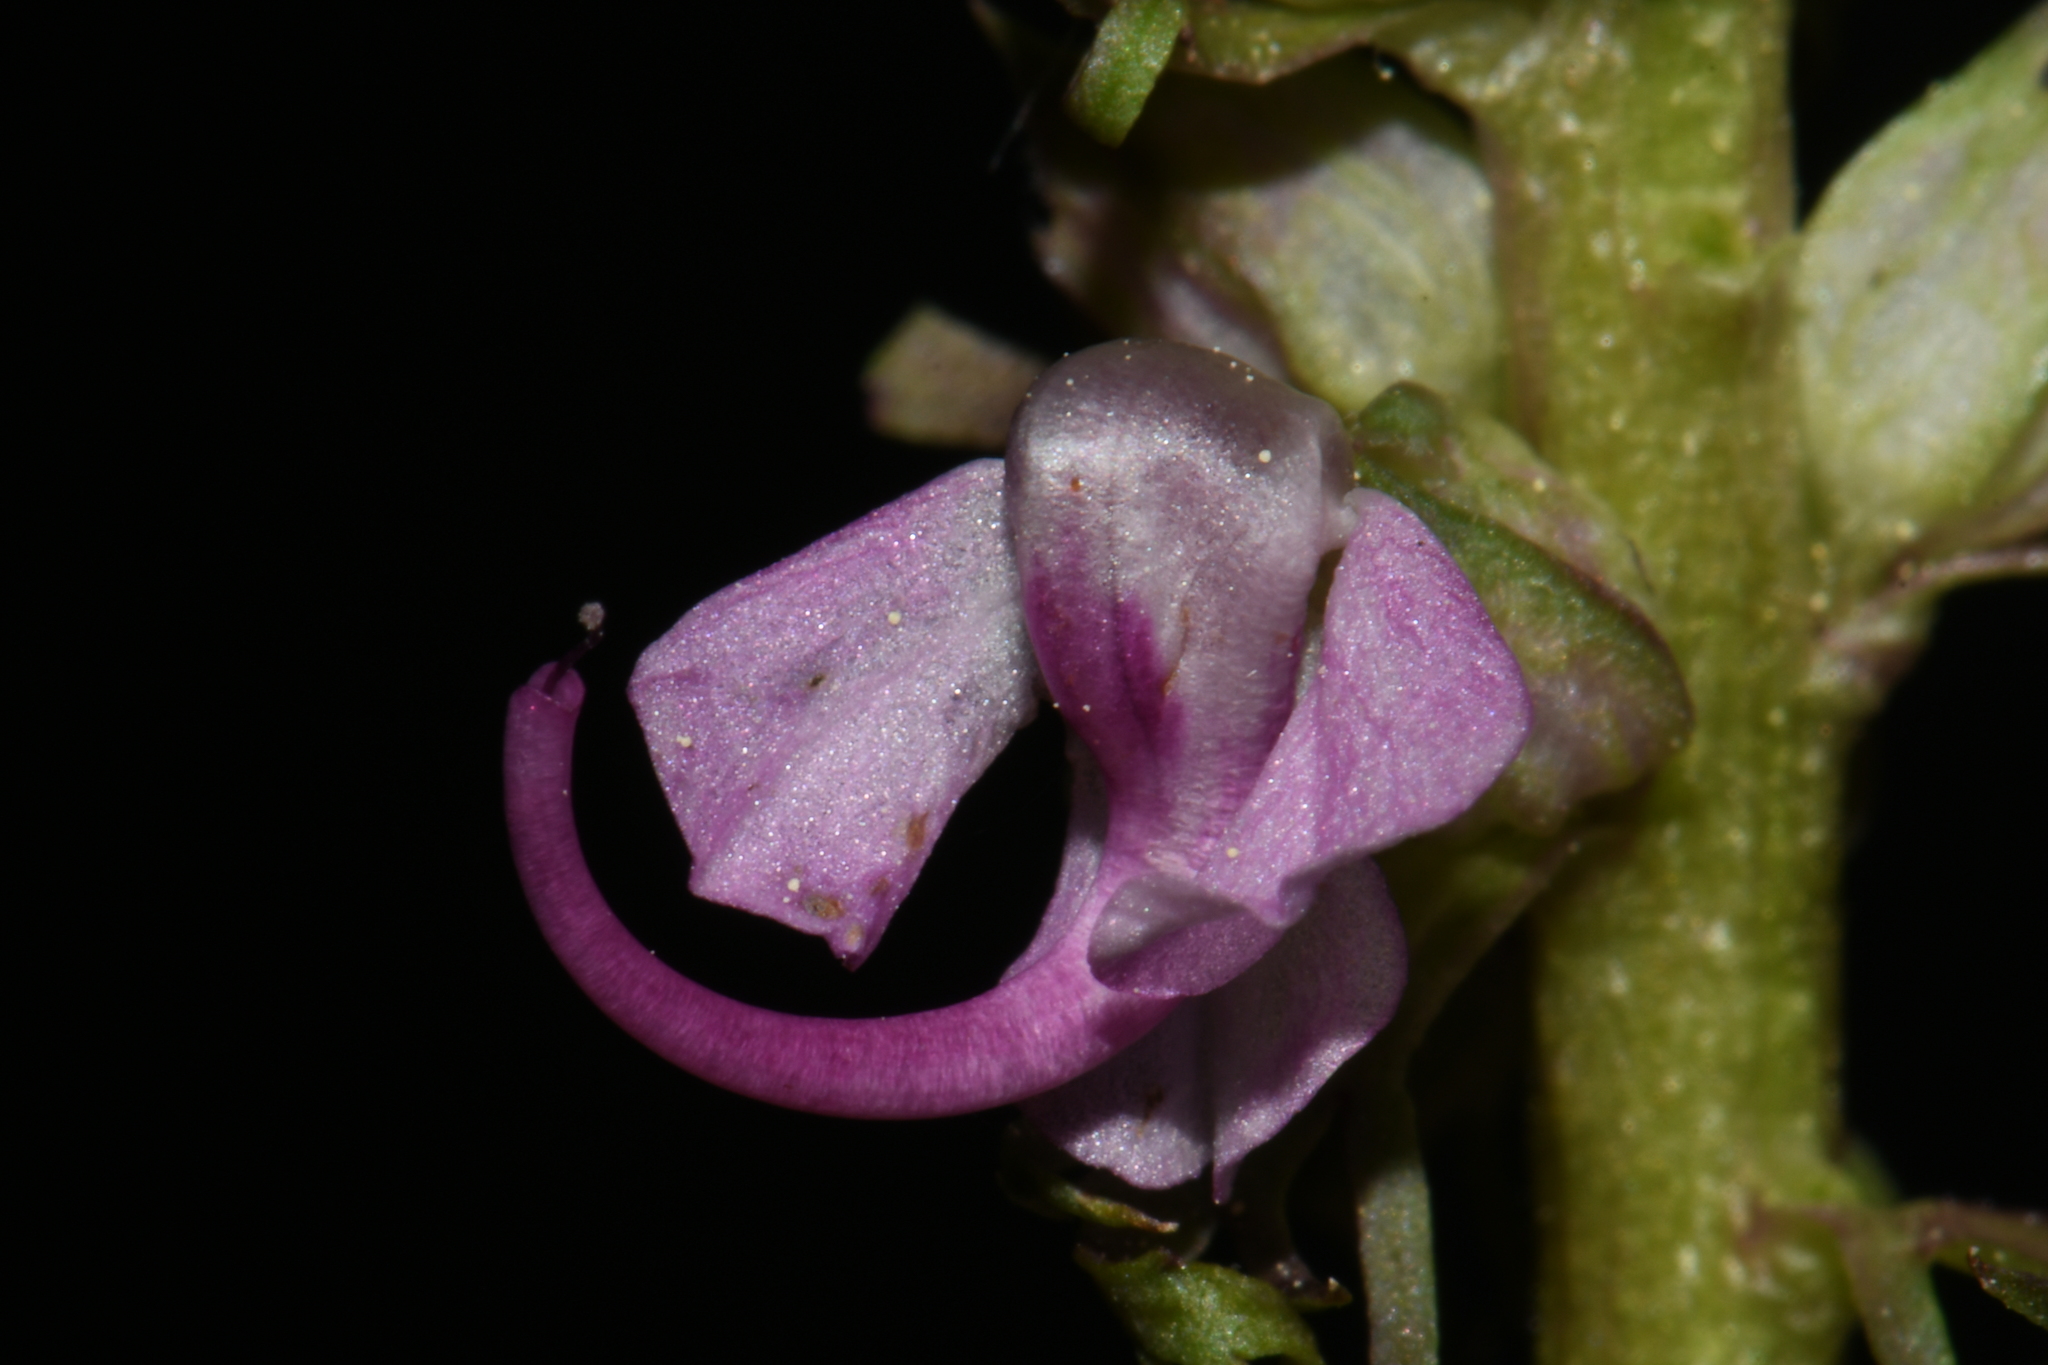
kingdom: Plantae
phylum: Tracheophyta
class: Magnoliopsida
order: Lamiales
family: Orobanchaceae
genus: Pedicularis
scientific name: Pedicularis groenlandica
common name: Elephant's-head
